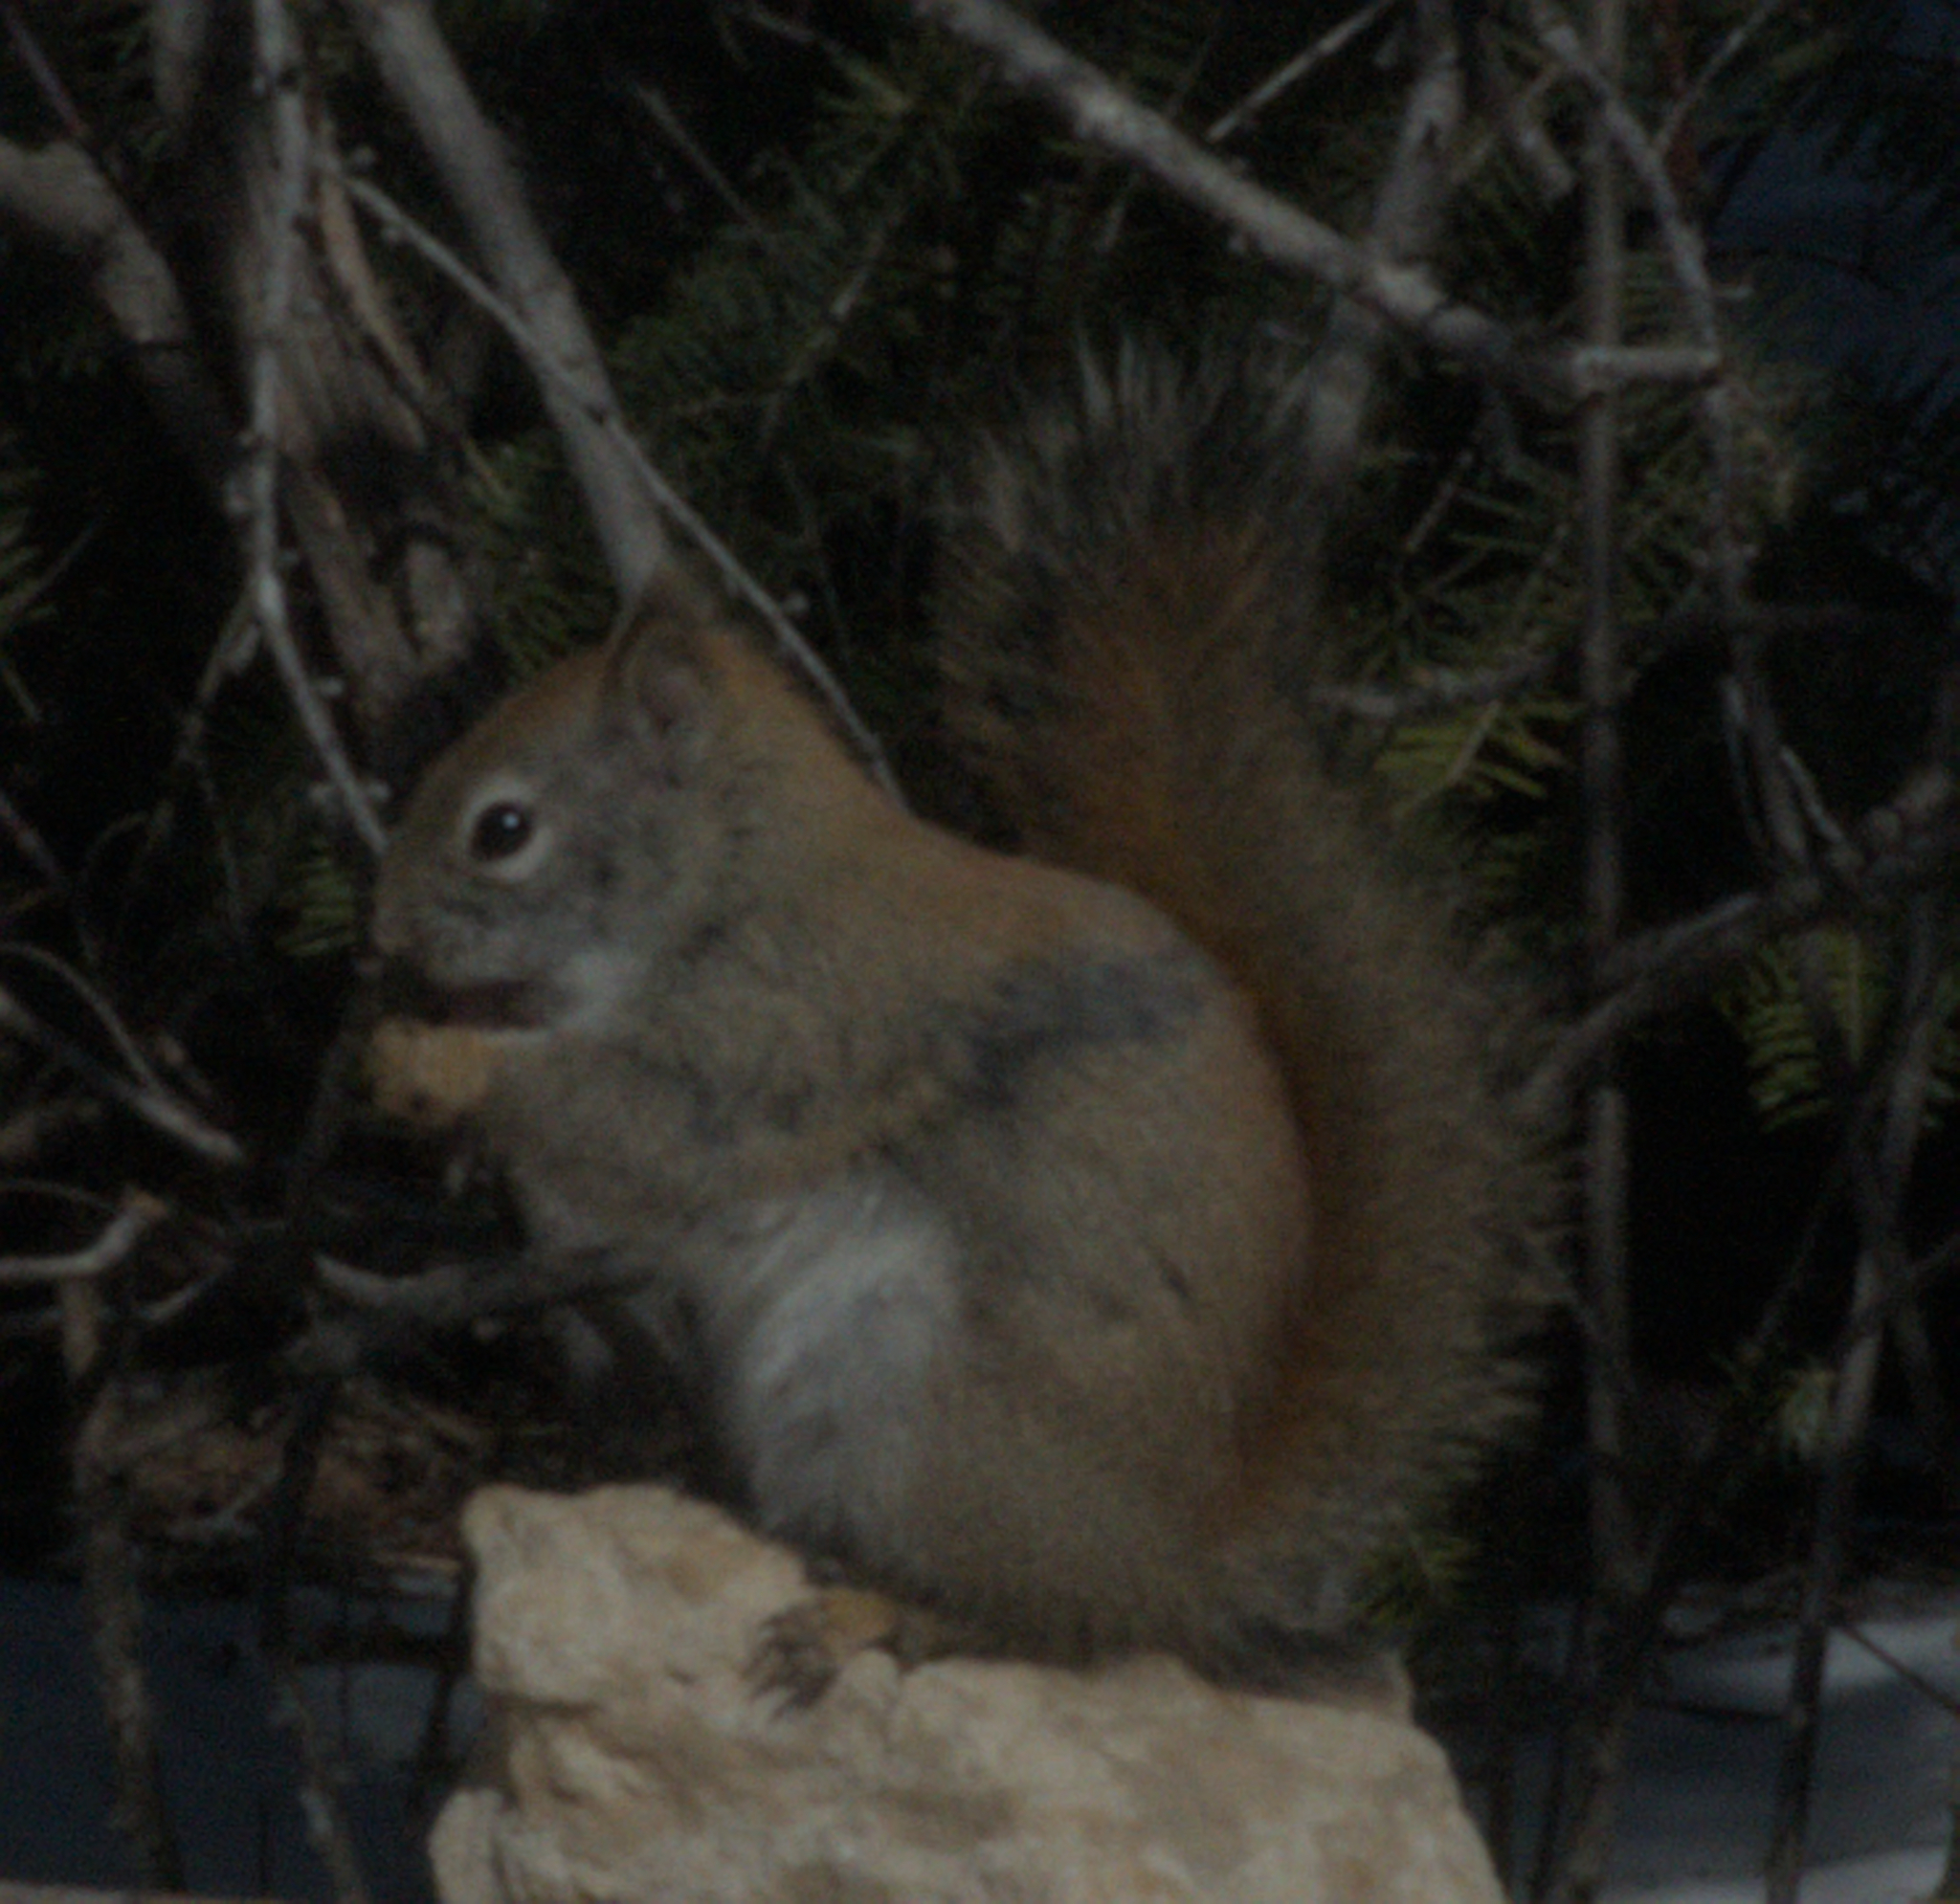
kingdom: Animalia
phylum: Chordata
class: Mammalia
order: Rodentia
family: Sciuridae
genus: Tamiasciurus
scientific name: Tamiasciurus hudsonicus
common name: Red squirrel
